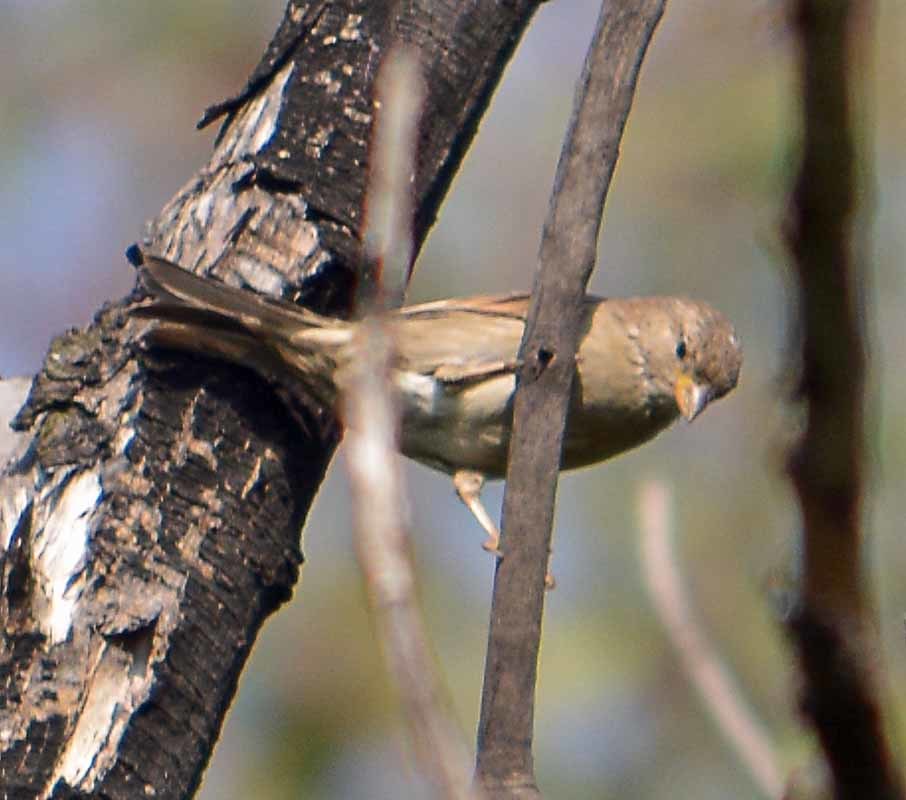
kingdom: Animalia
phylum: Chordata
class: Aves
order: Passeriformes
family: Passeridae
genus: Passer
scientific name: Passer domesticus
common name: House sparrow
